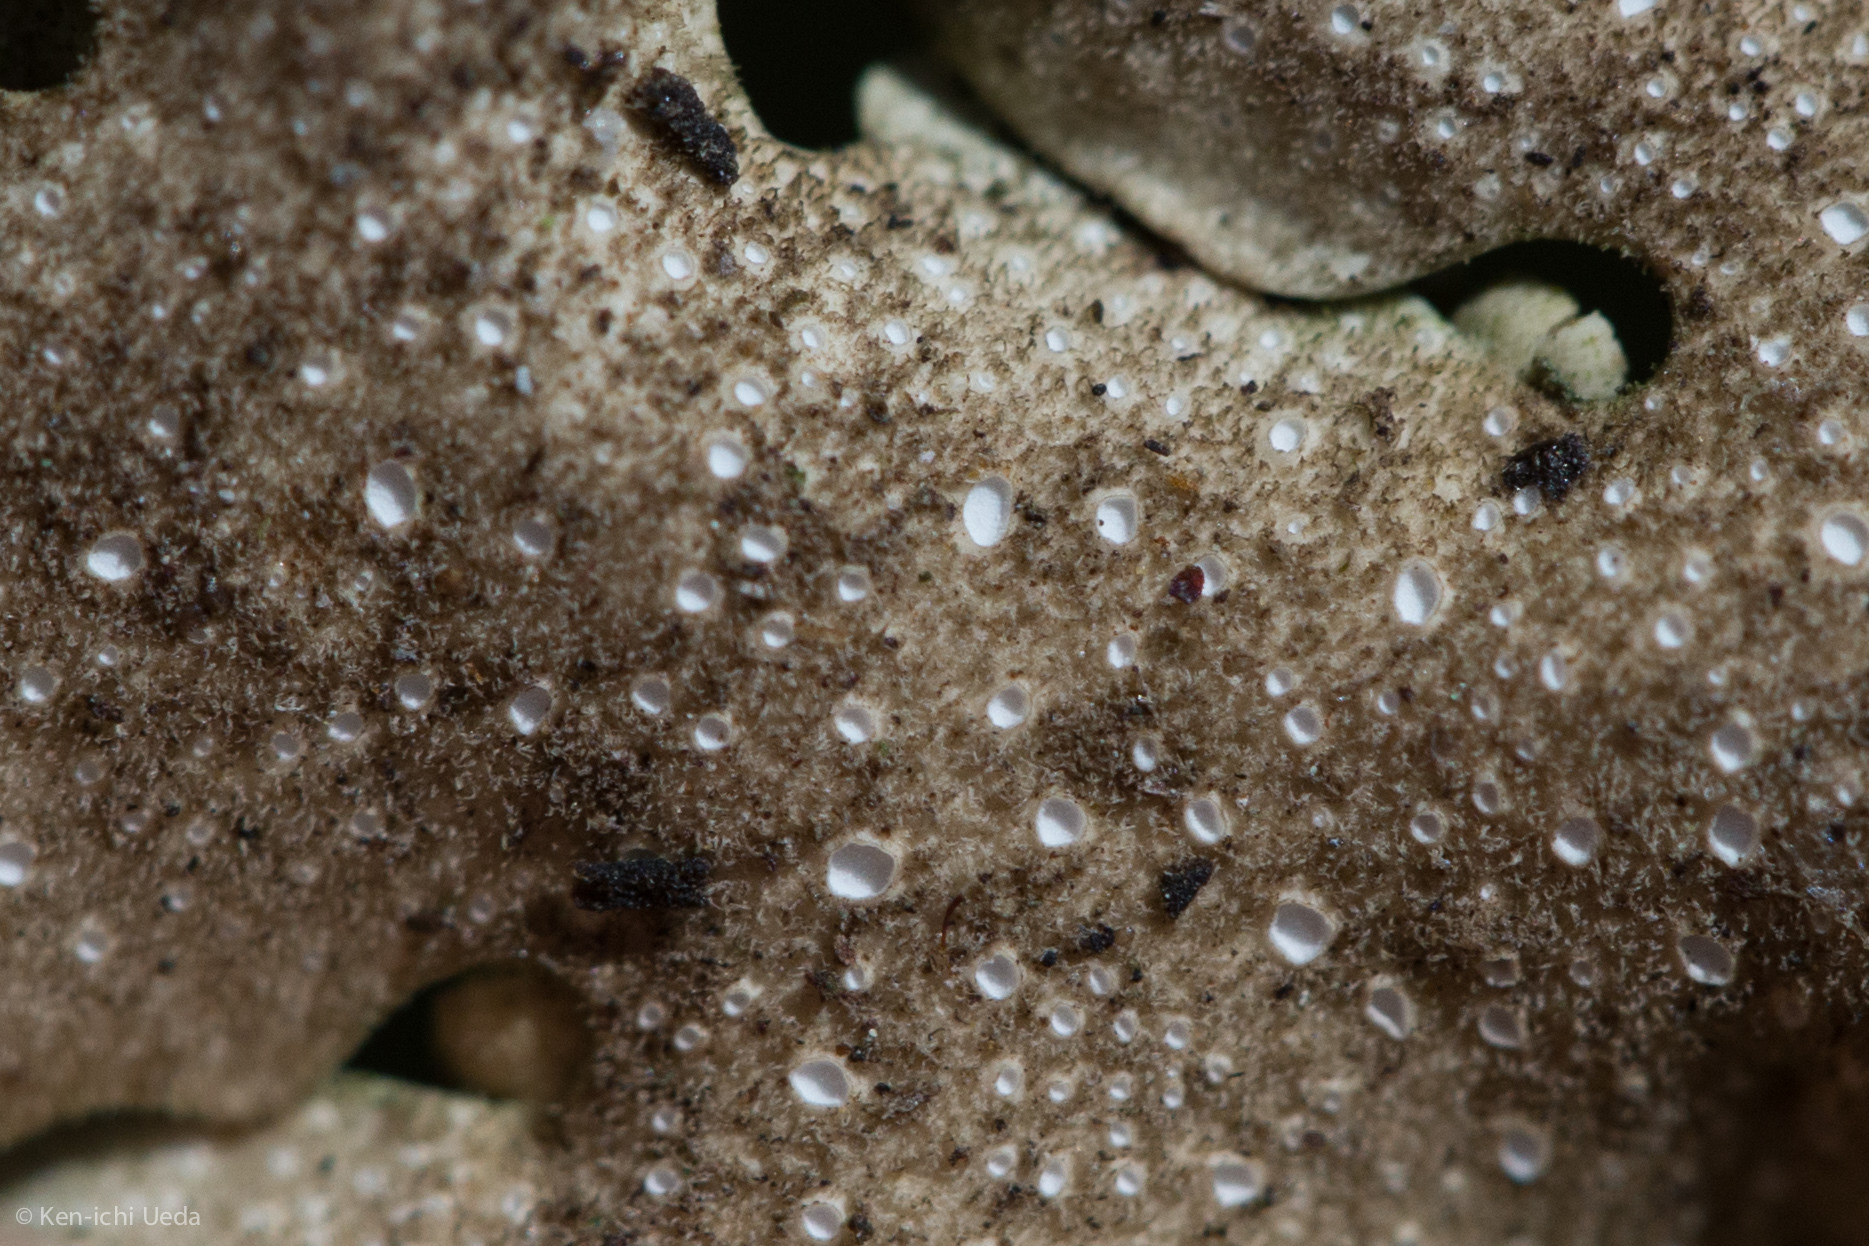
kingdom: Fungi
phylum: Ascomycota
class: Lecanoromycetes
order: Peltigerales
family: Lobariaceae
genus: Sticta
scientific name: Sticta subcaperata
